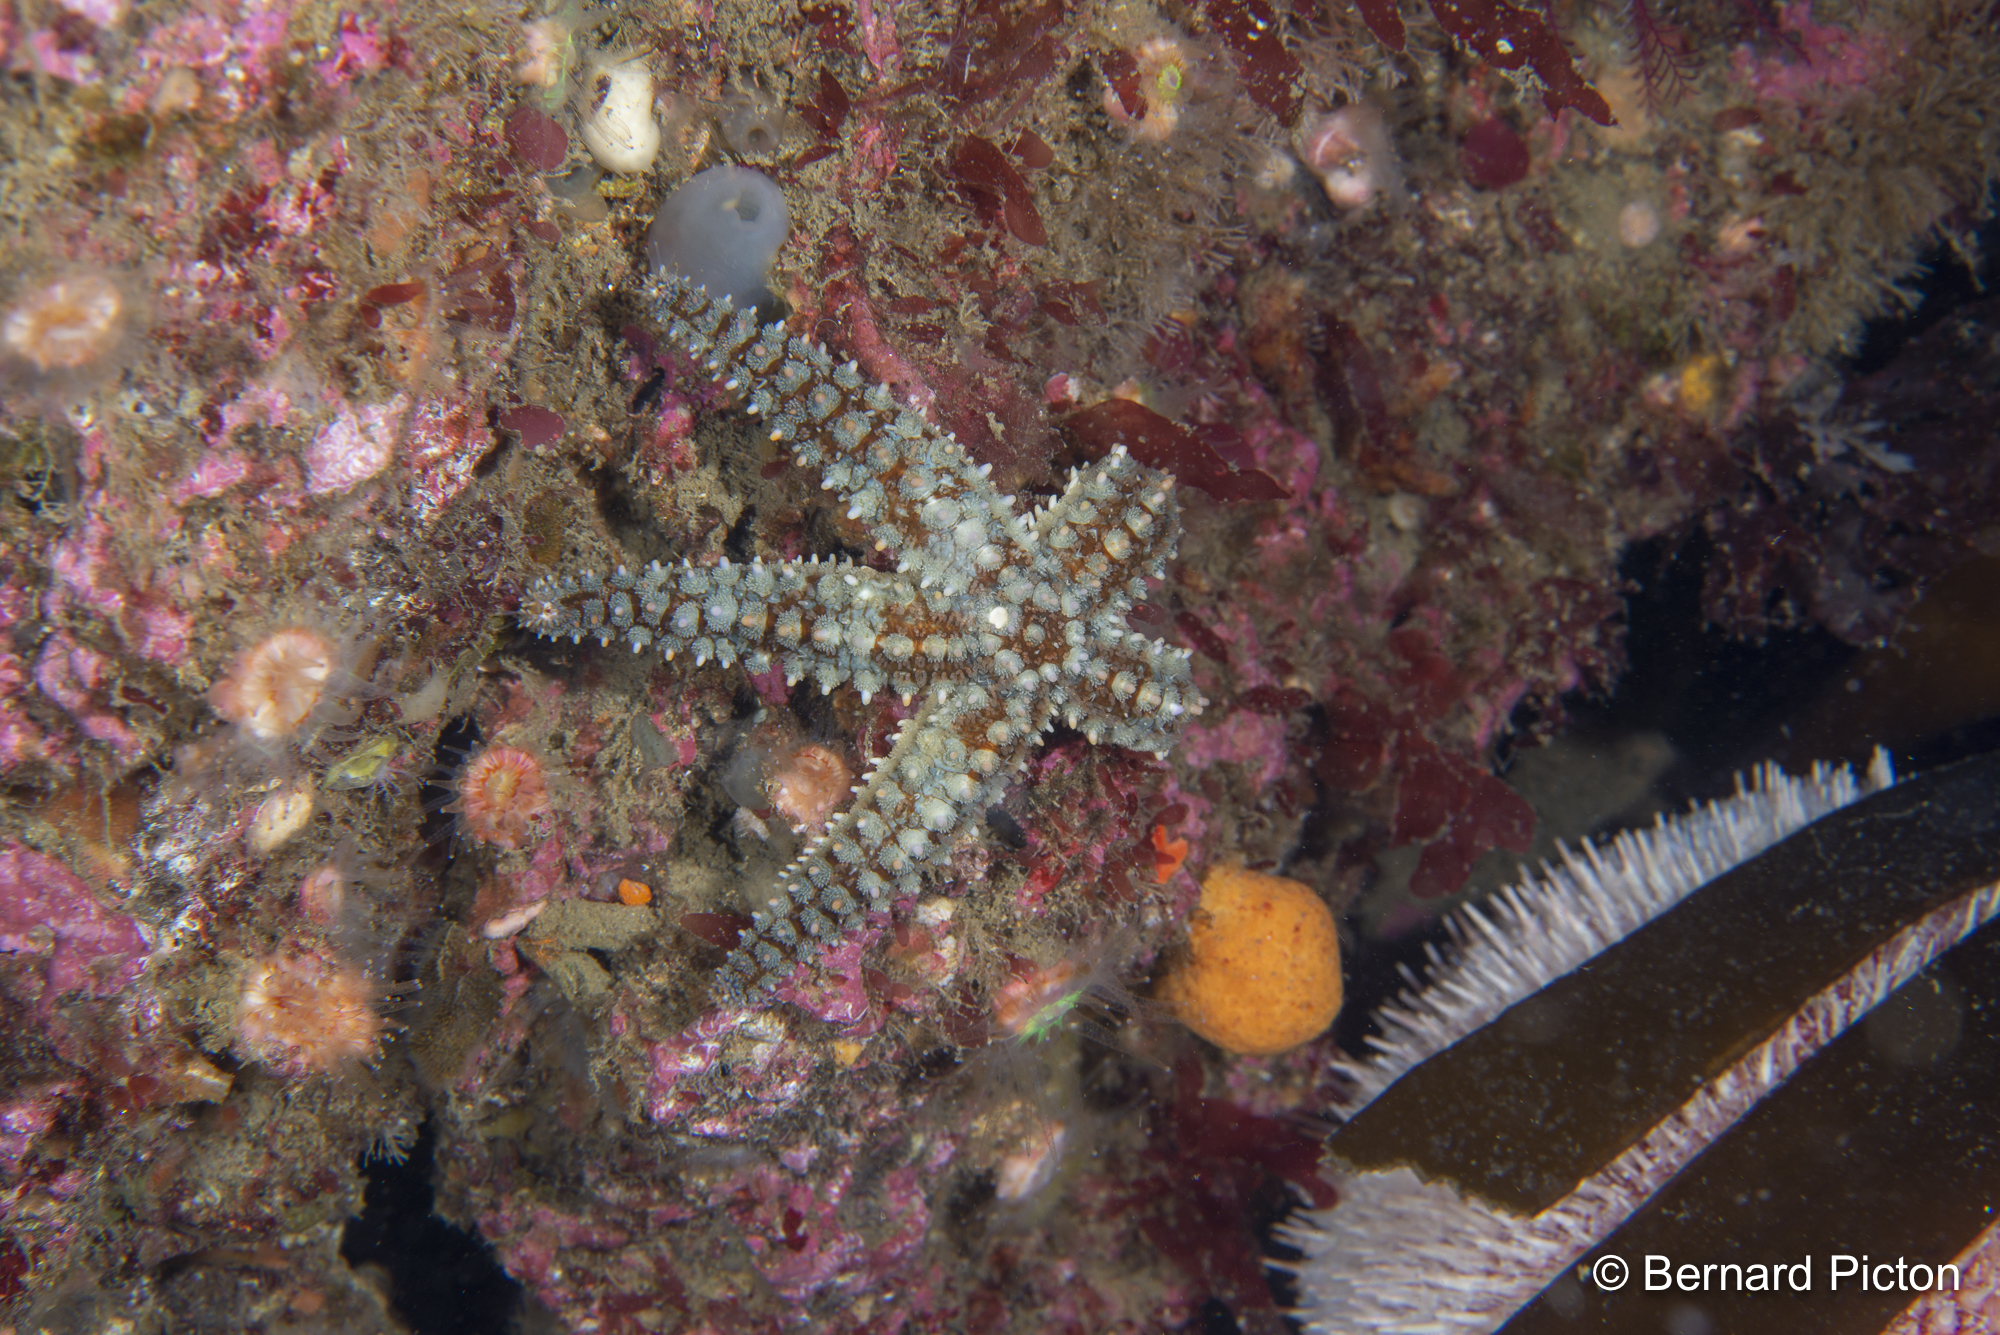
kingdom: Animalia
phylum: Echinodermata
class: Asteroidea
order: Forcipulatida
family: Asteriidae
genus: Marthasterias
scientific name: Marthasterias glacialis
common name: Spiny starfish
